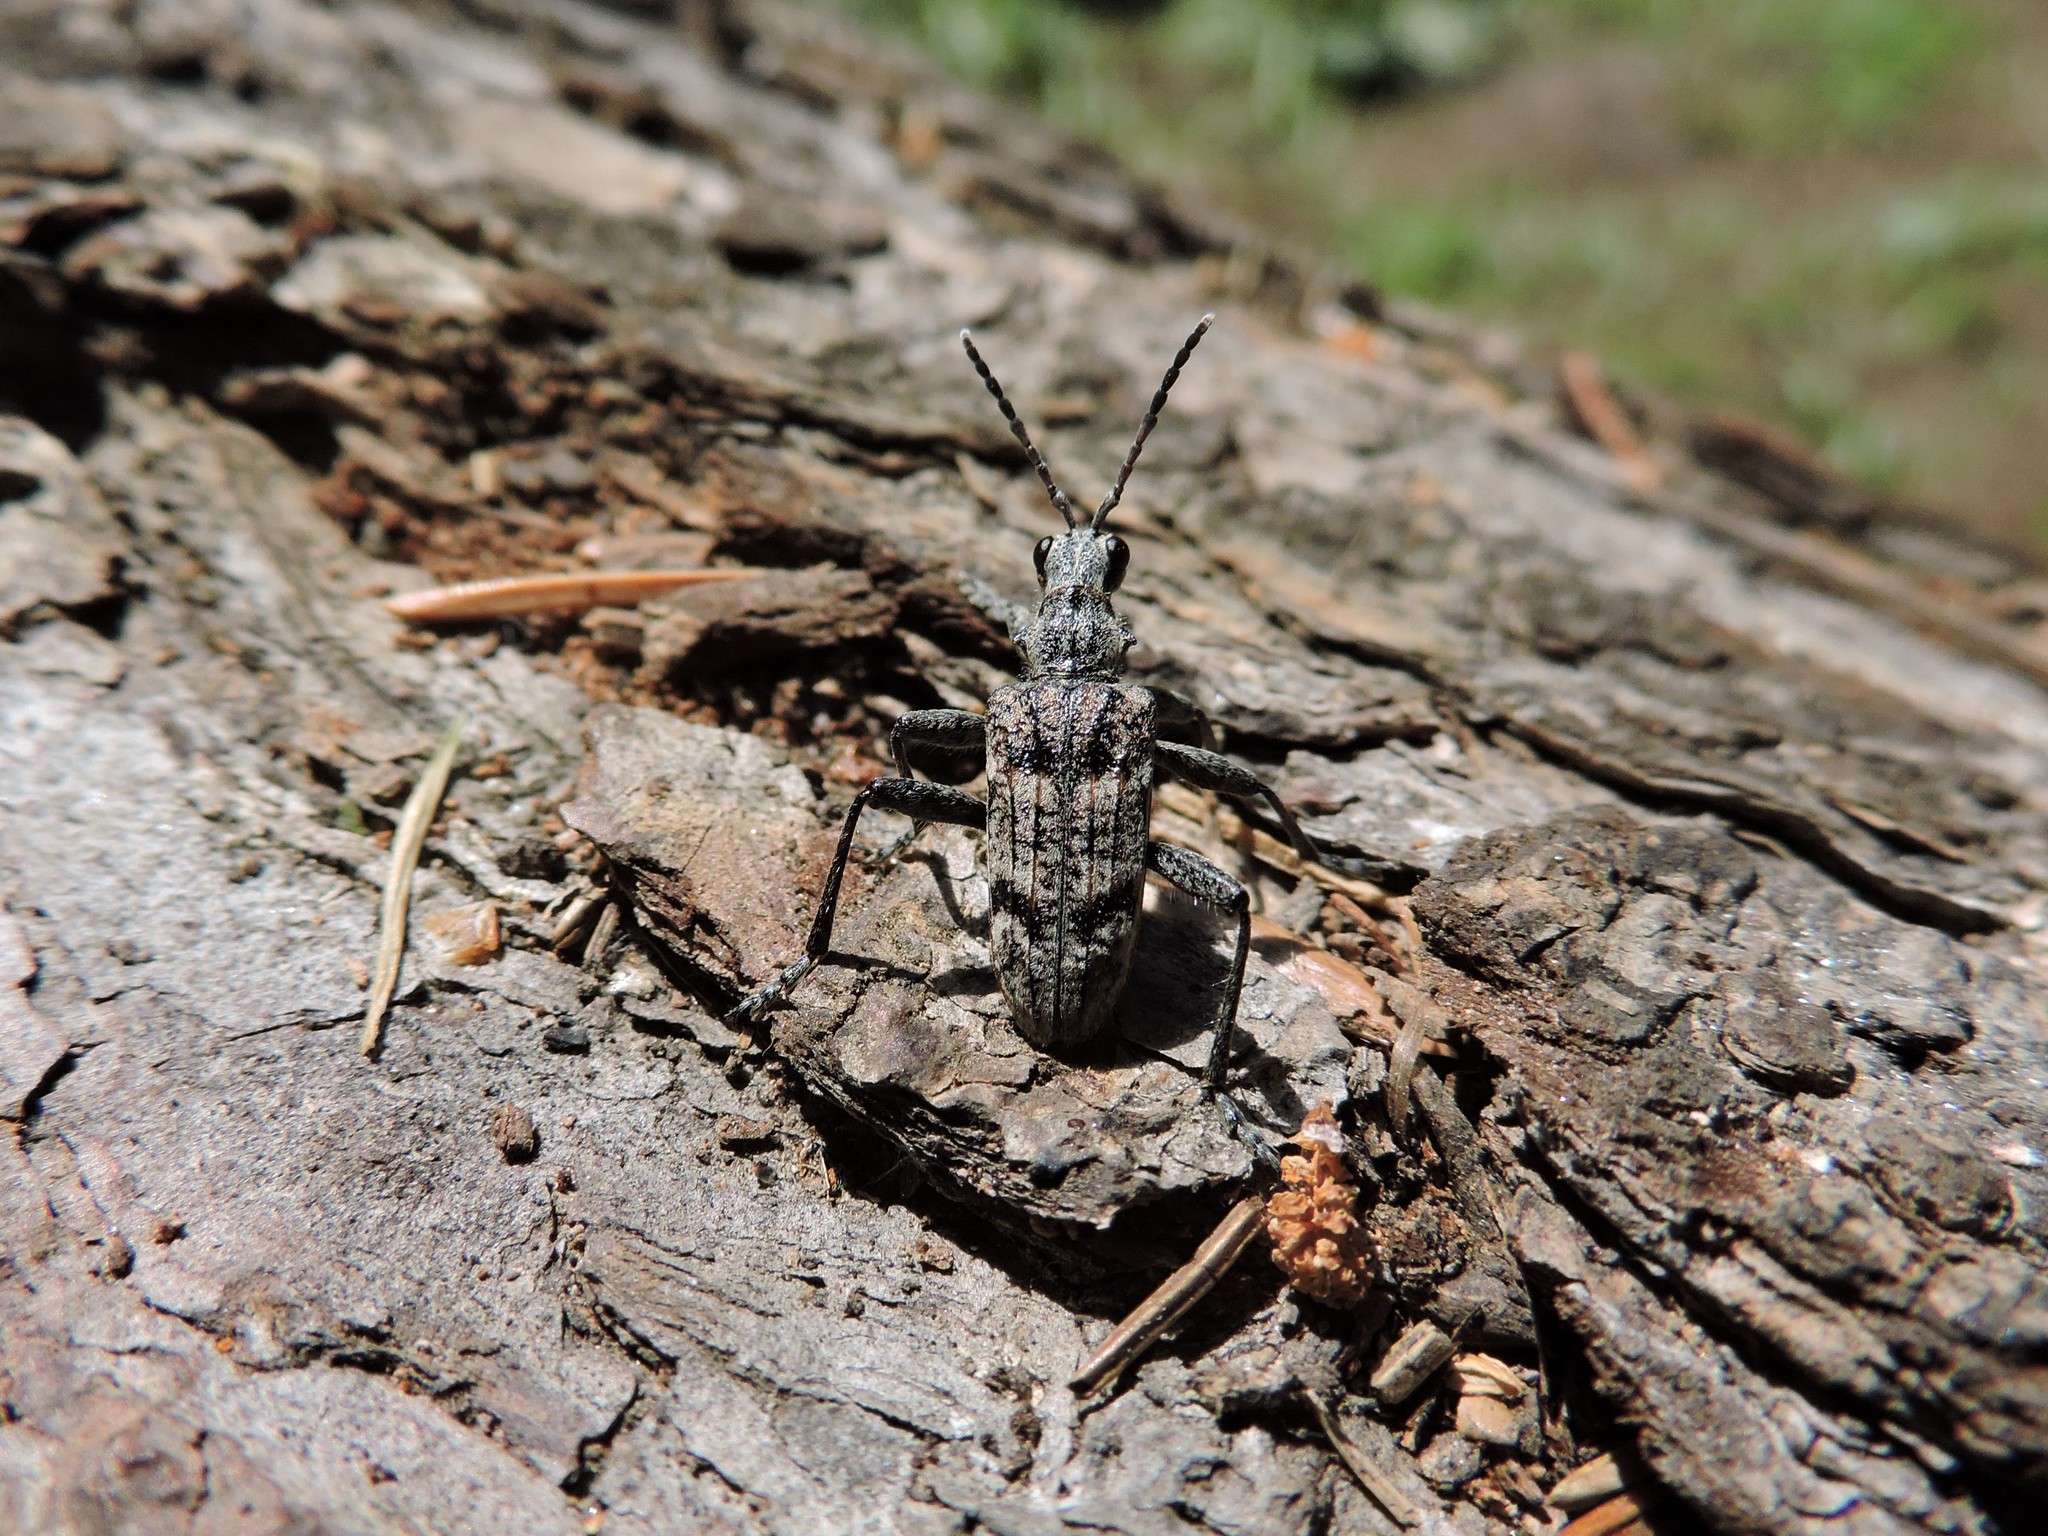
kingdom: Animalia
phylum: Arthropoda
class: Insecta
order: Coleoptera
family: Cerambycidae
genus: Rhagium
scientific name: Rhagium inquisitor
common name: Ribbed pine borer
